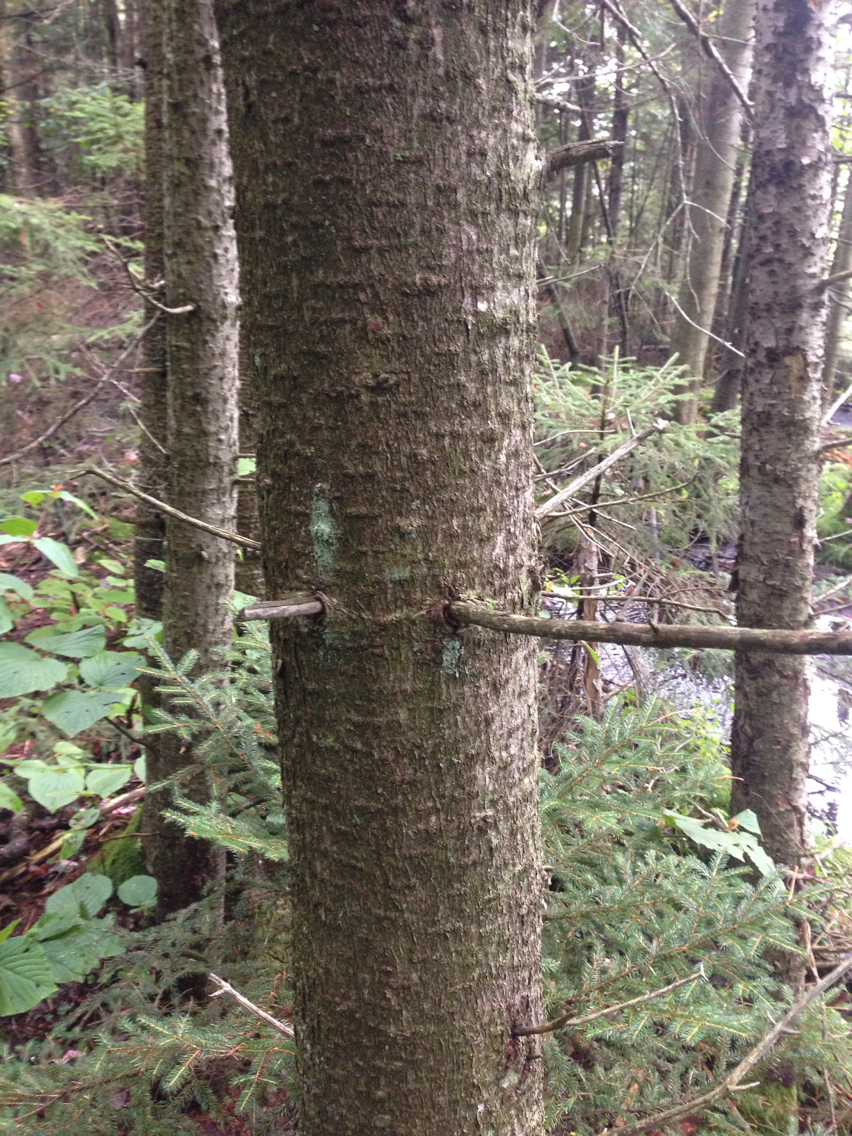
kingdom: Plantae
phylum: Tracheophyta
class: Pinopsida
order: Pinales
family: Pinaceae
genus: Abies
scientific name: Abies balsamea
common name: Balsam fir
